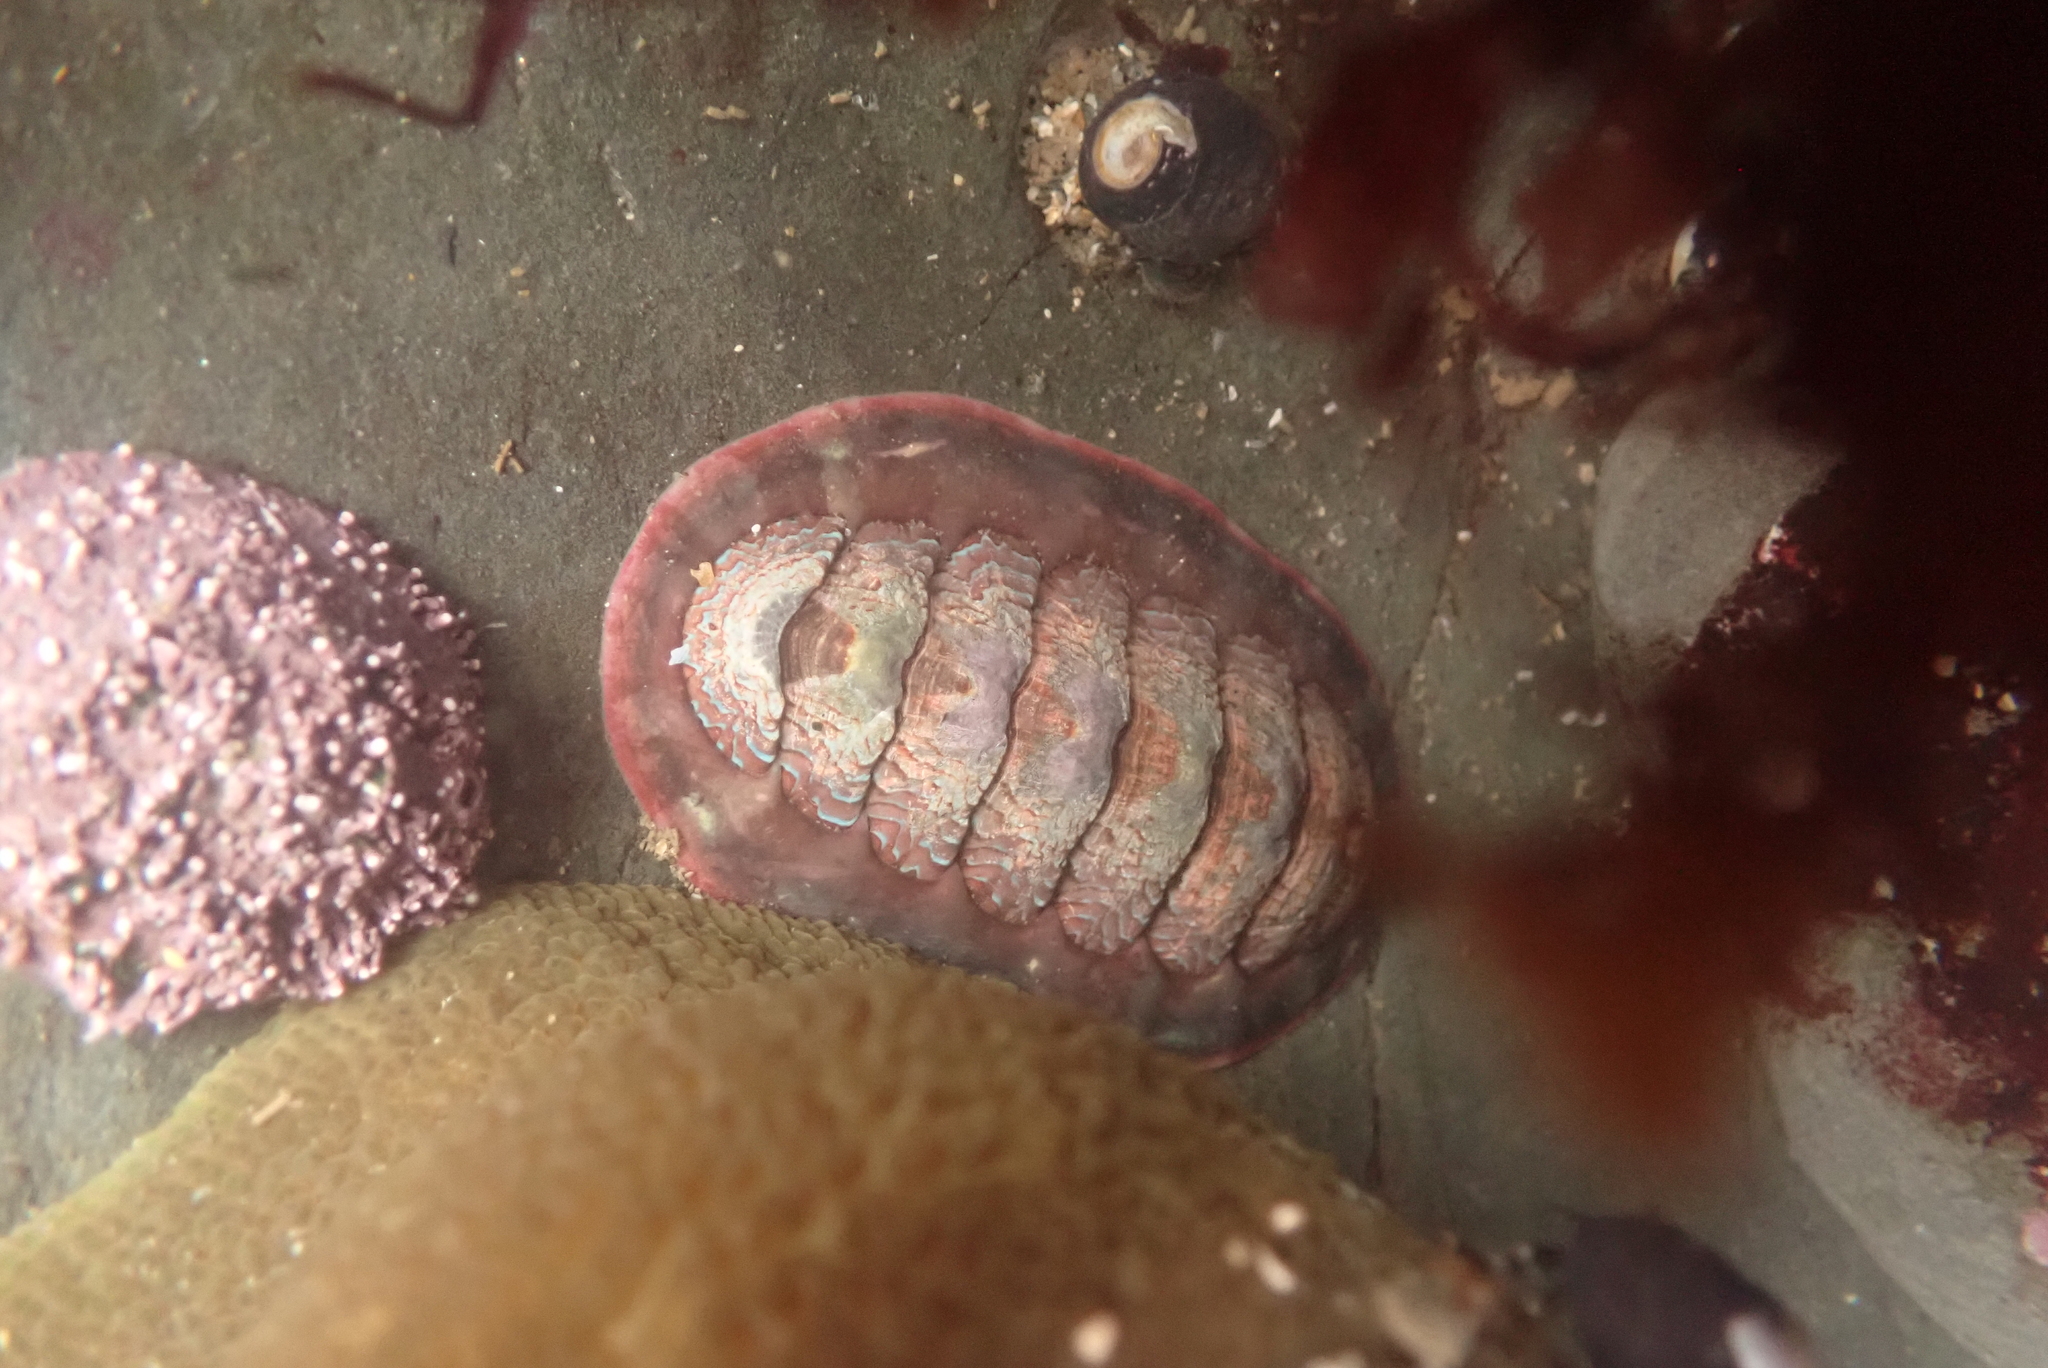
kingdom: Animalia
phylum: Mollusca
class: Polyplacophora
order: Chitonida
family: Tonicellidae
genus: Tonicella
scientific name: Tonicella lokii
